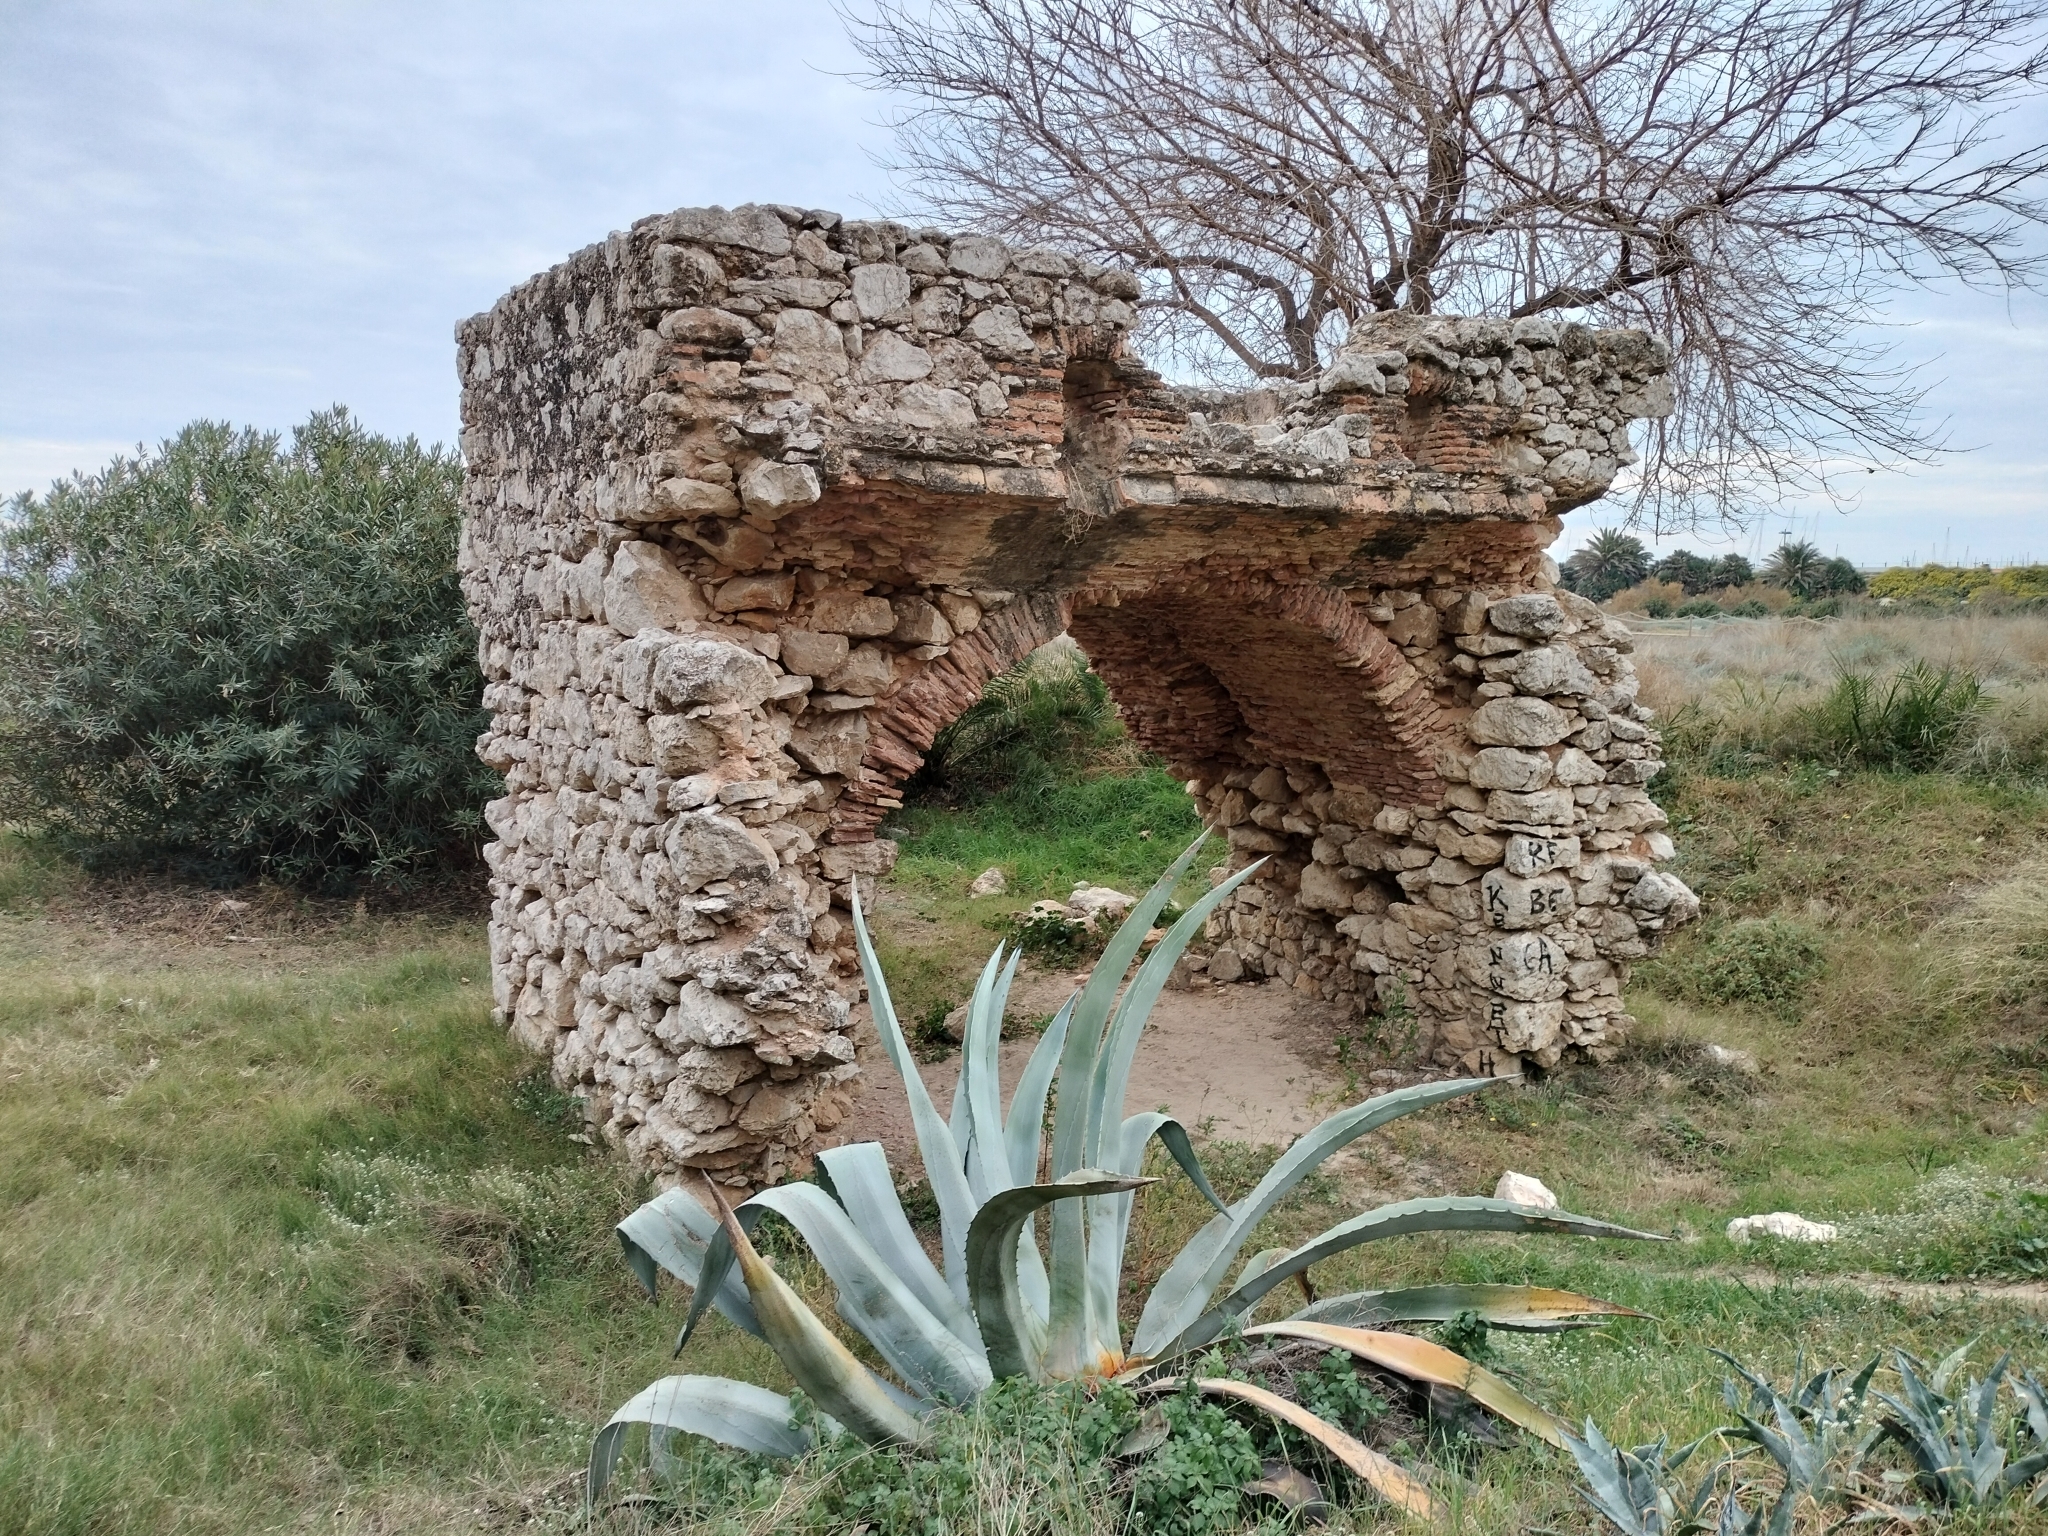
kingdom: Plantae
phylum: Tracheophyta
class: Liliopsida
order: Asparagales
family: Asparagaceae
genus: Agave
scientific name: Agave americana
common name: Centuryplant
